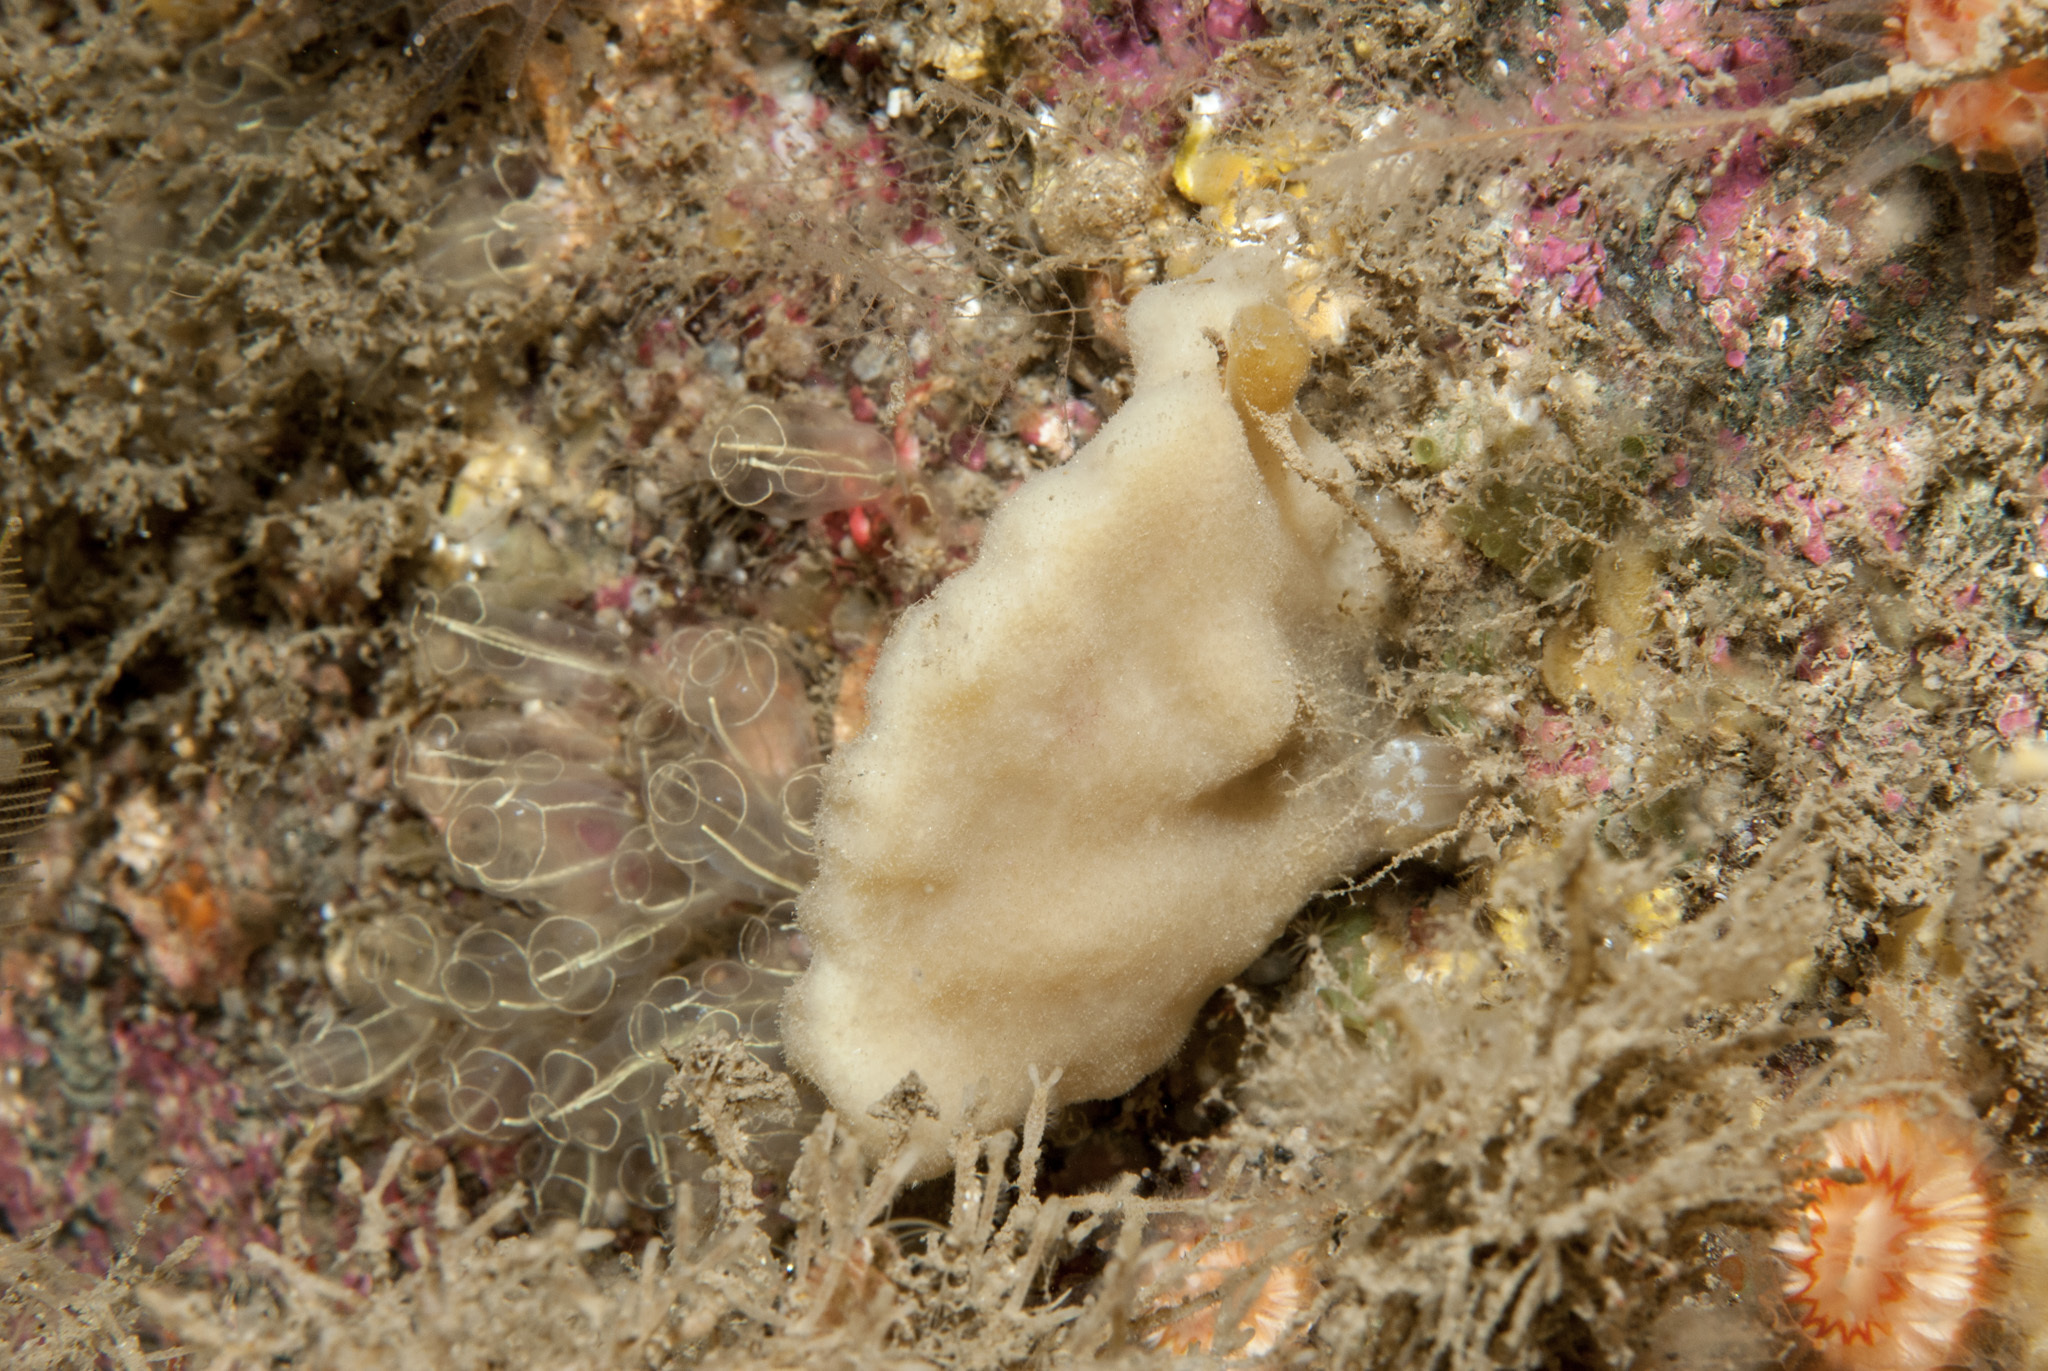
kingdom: Animalia
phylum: Porifera
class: Demospongiae
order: Dendroceratida
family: Dictyodendrillidae
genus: Spongionella
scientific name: Spongionella pulchella
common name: Gorgeous horny sponge
